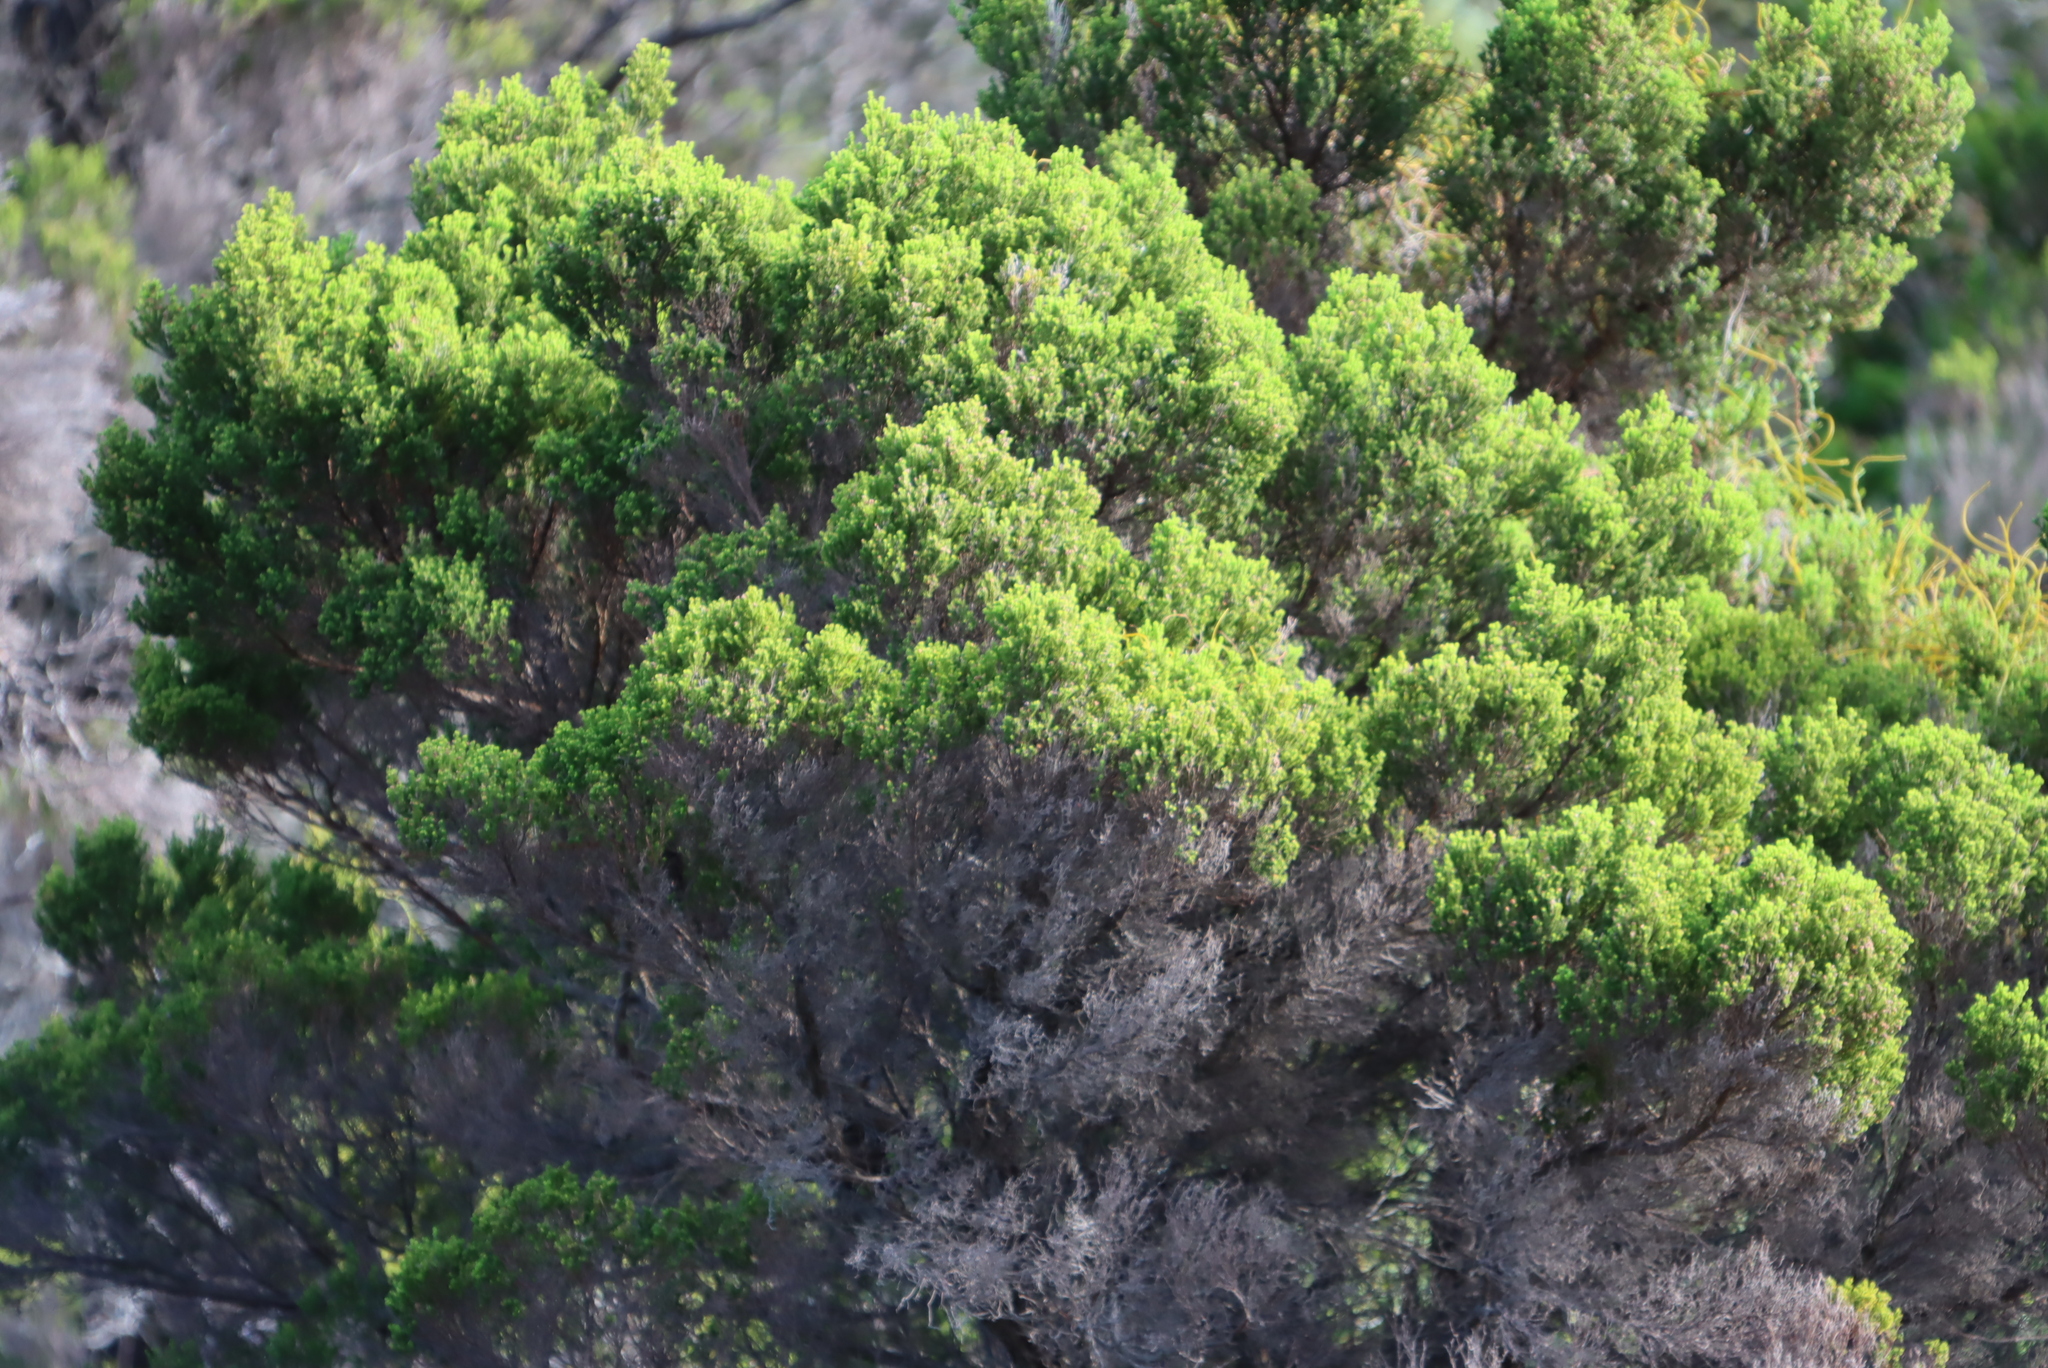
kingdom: Plantae
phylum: Tracheophyta
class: Magnoliopsida
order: Ericales
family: Ericaceae
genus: Erica
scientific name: Erica tristis
